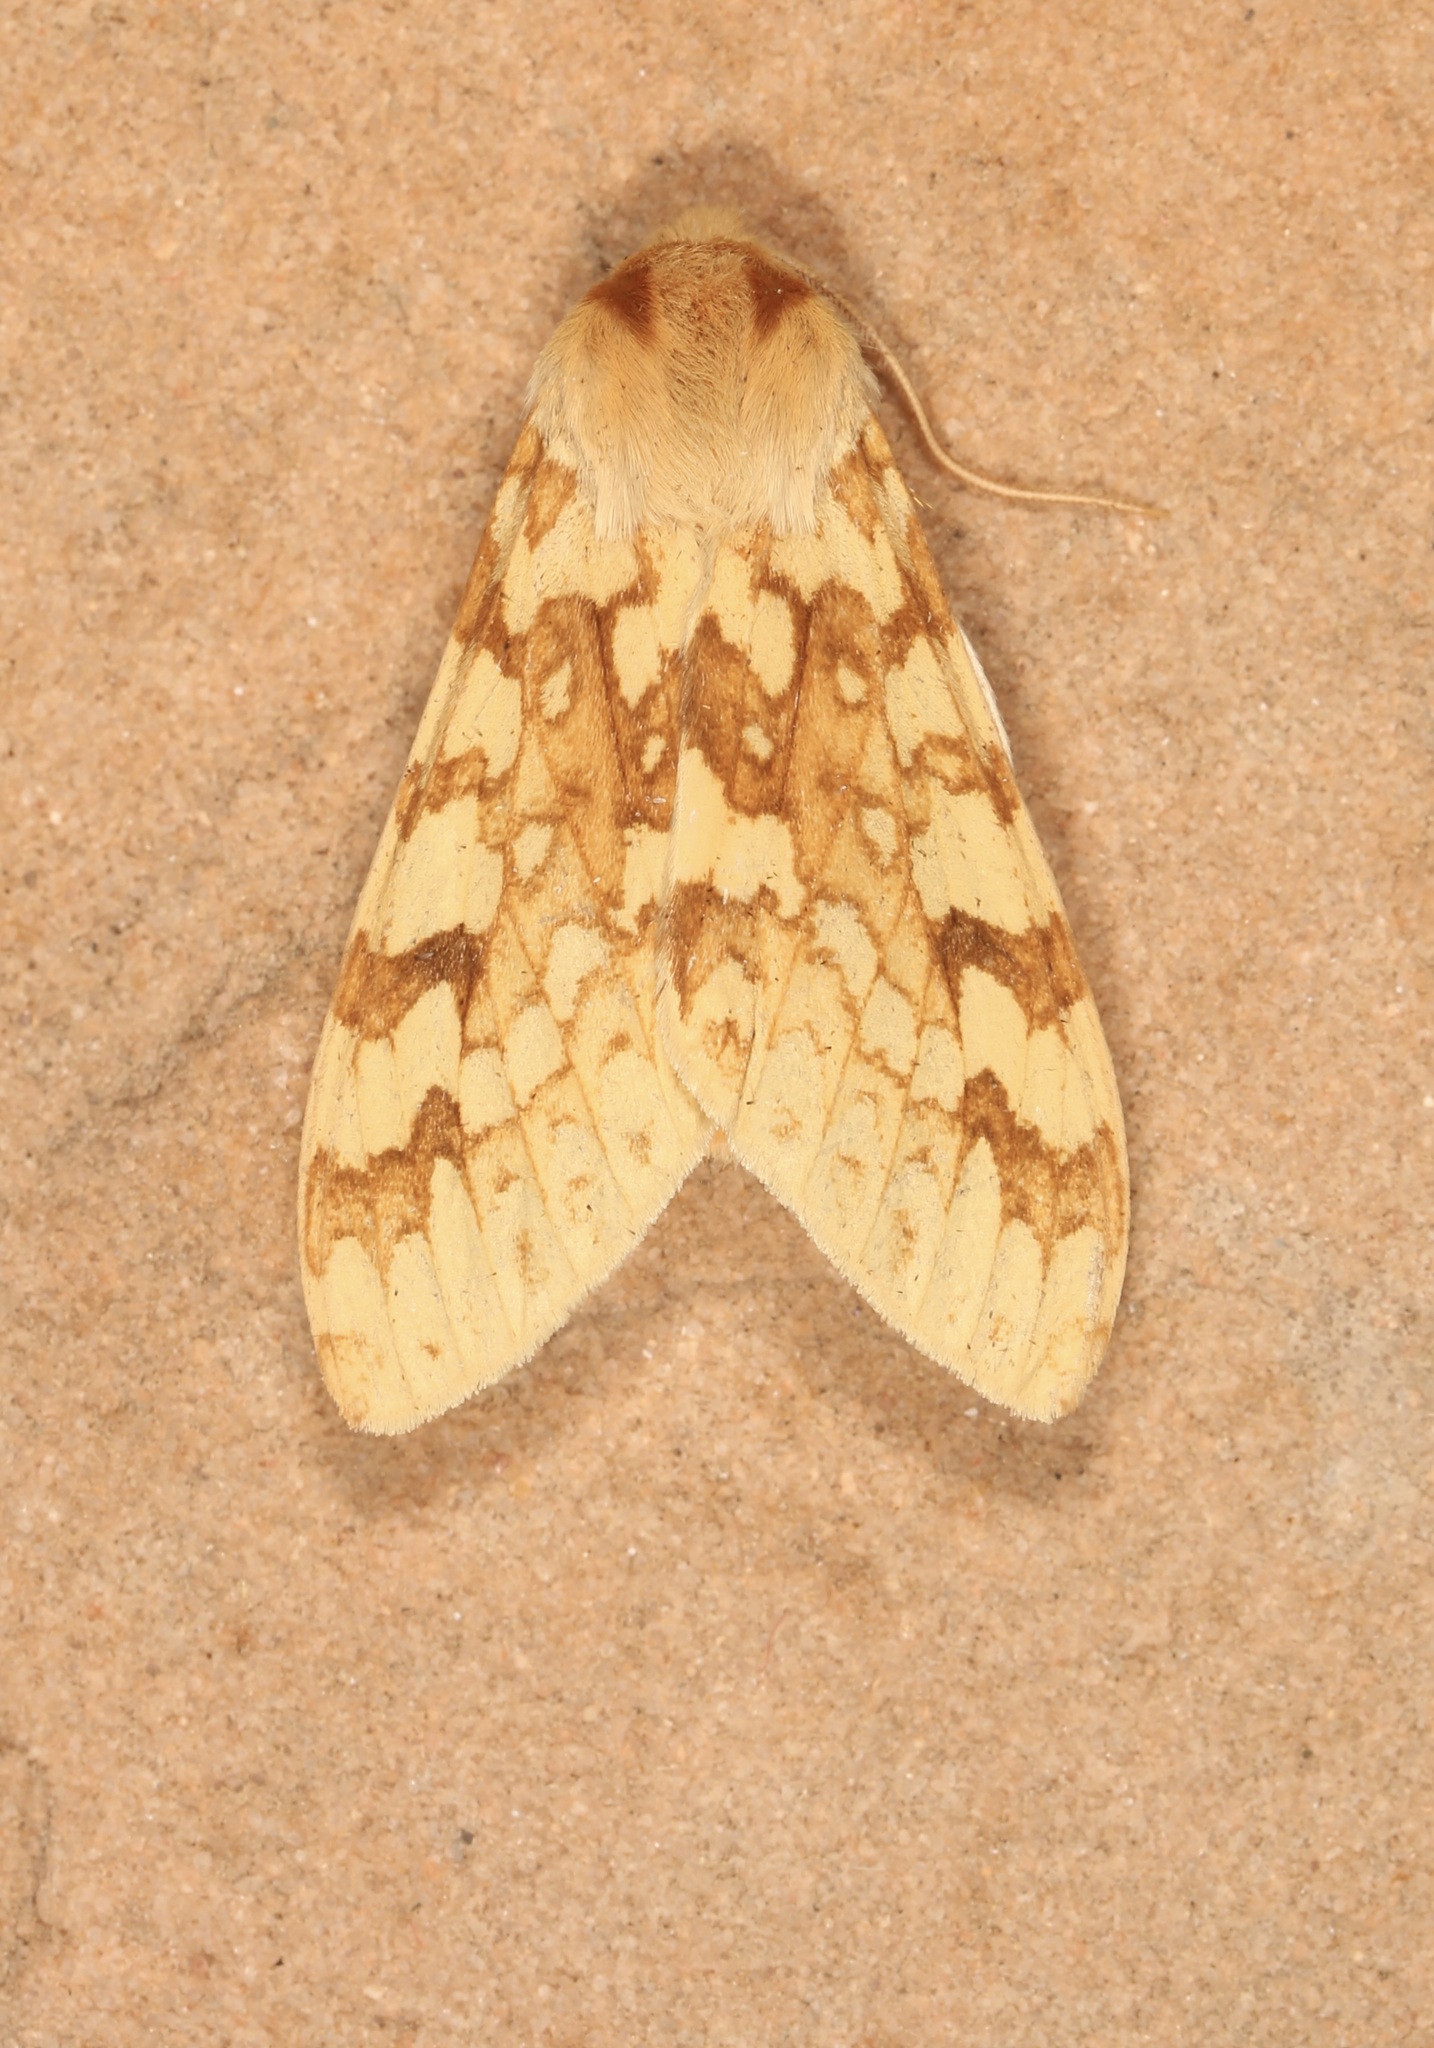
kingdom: Animalia
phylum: Arthropoda
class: Insecta
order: Lepidoptera
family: Erebidae
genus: Lophocampa
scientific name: Lophocampa maculata
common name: Spotted tussock moth
